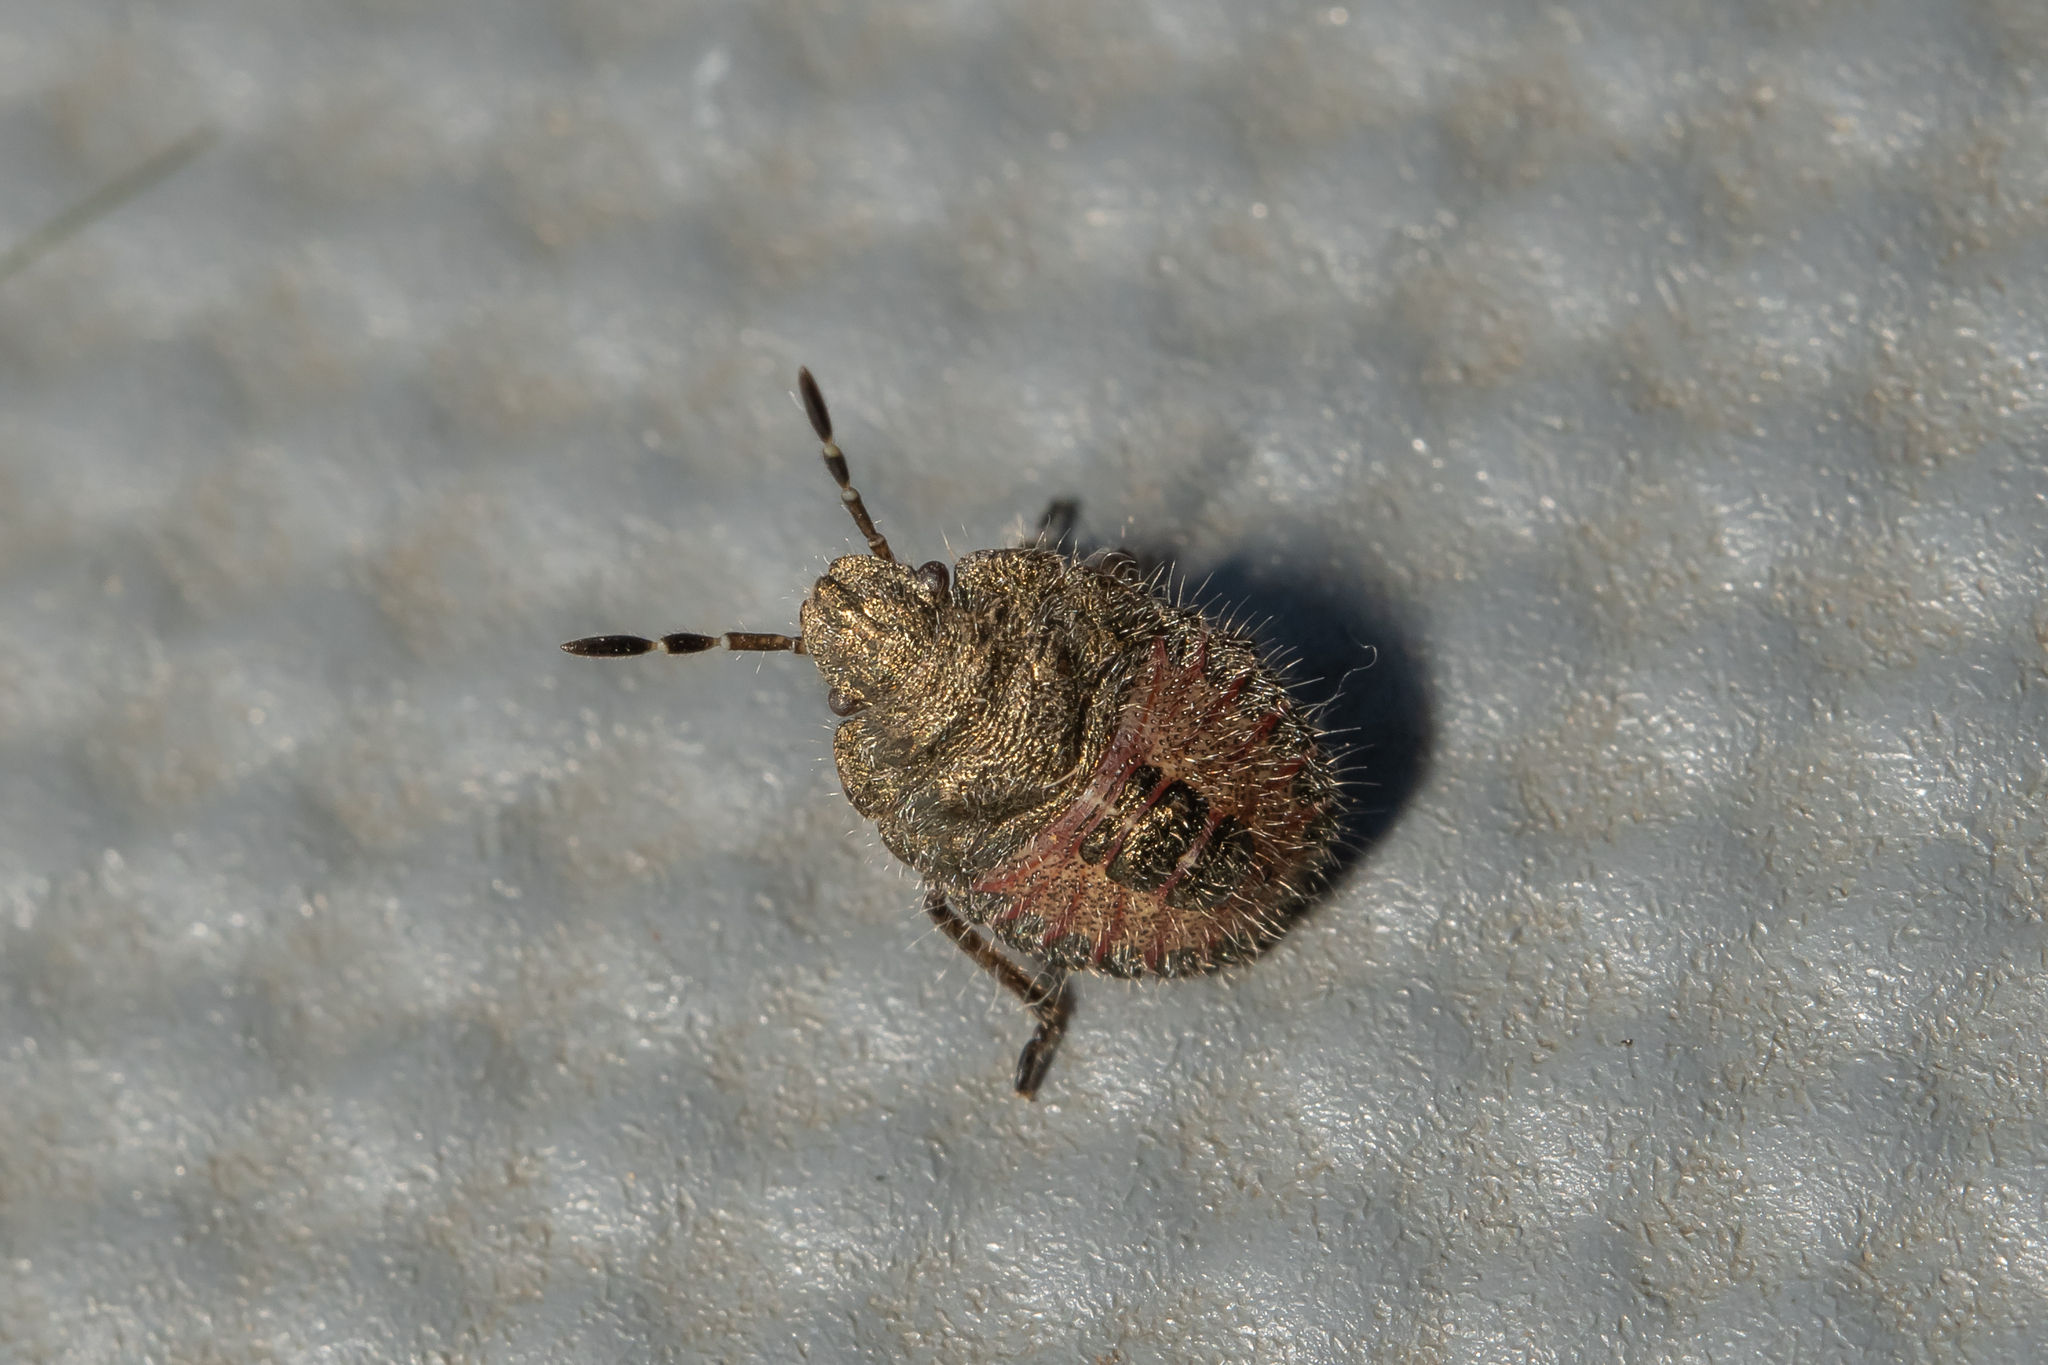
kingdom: Animalia
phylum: Arthropoda
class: Insecta
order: Hemiptera
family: Pentatomidae
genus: Dolycoris
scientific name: Dolycoris baccarum
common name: Sloe bug
